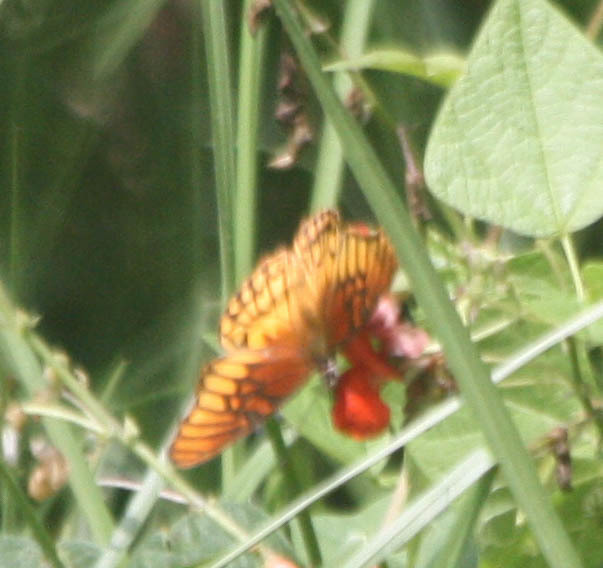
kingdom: Animalia
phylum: Arthropoda
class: Insecta
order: Lepidoptera
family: Nymphalidae
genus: Dione
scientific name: Dione moneta
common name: Mexican silverspot
